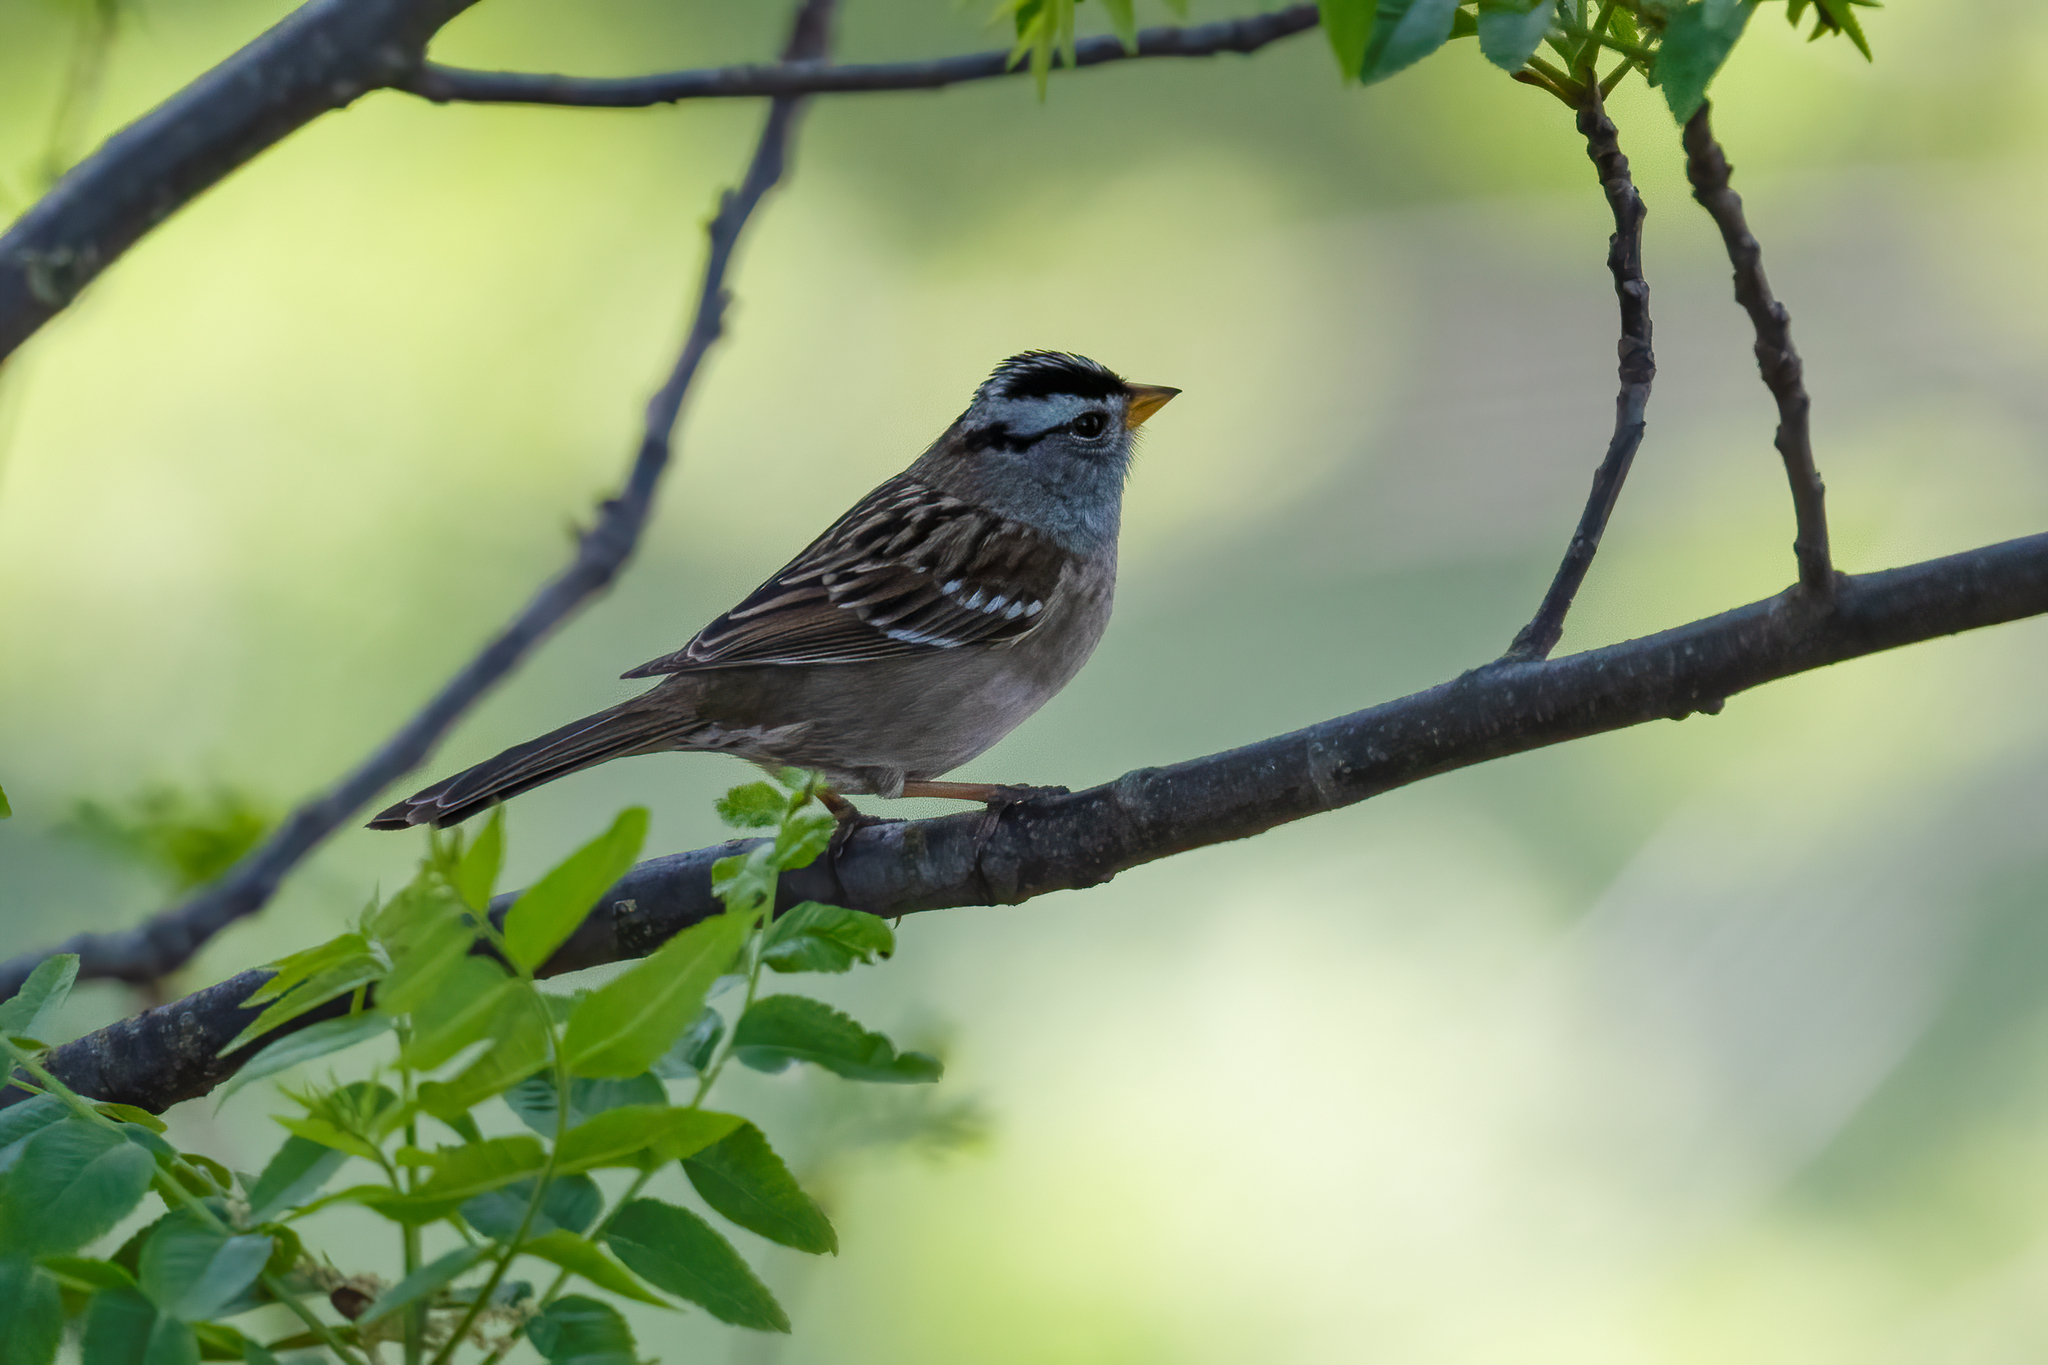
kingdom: Animalia
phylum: Chordata
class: Aves
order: Passeriformes
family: Passerellidae
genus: Zonotrichia
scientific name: Zonotrichia leucophrys
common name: White-crowned sparrow
